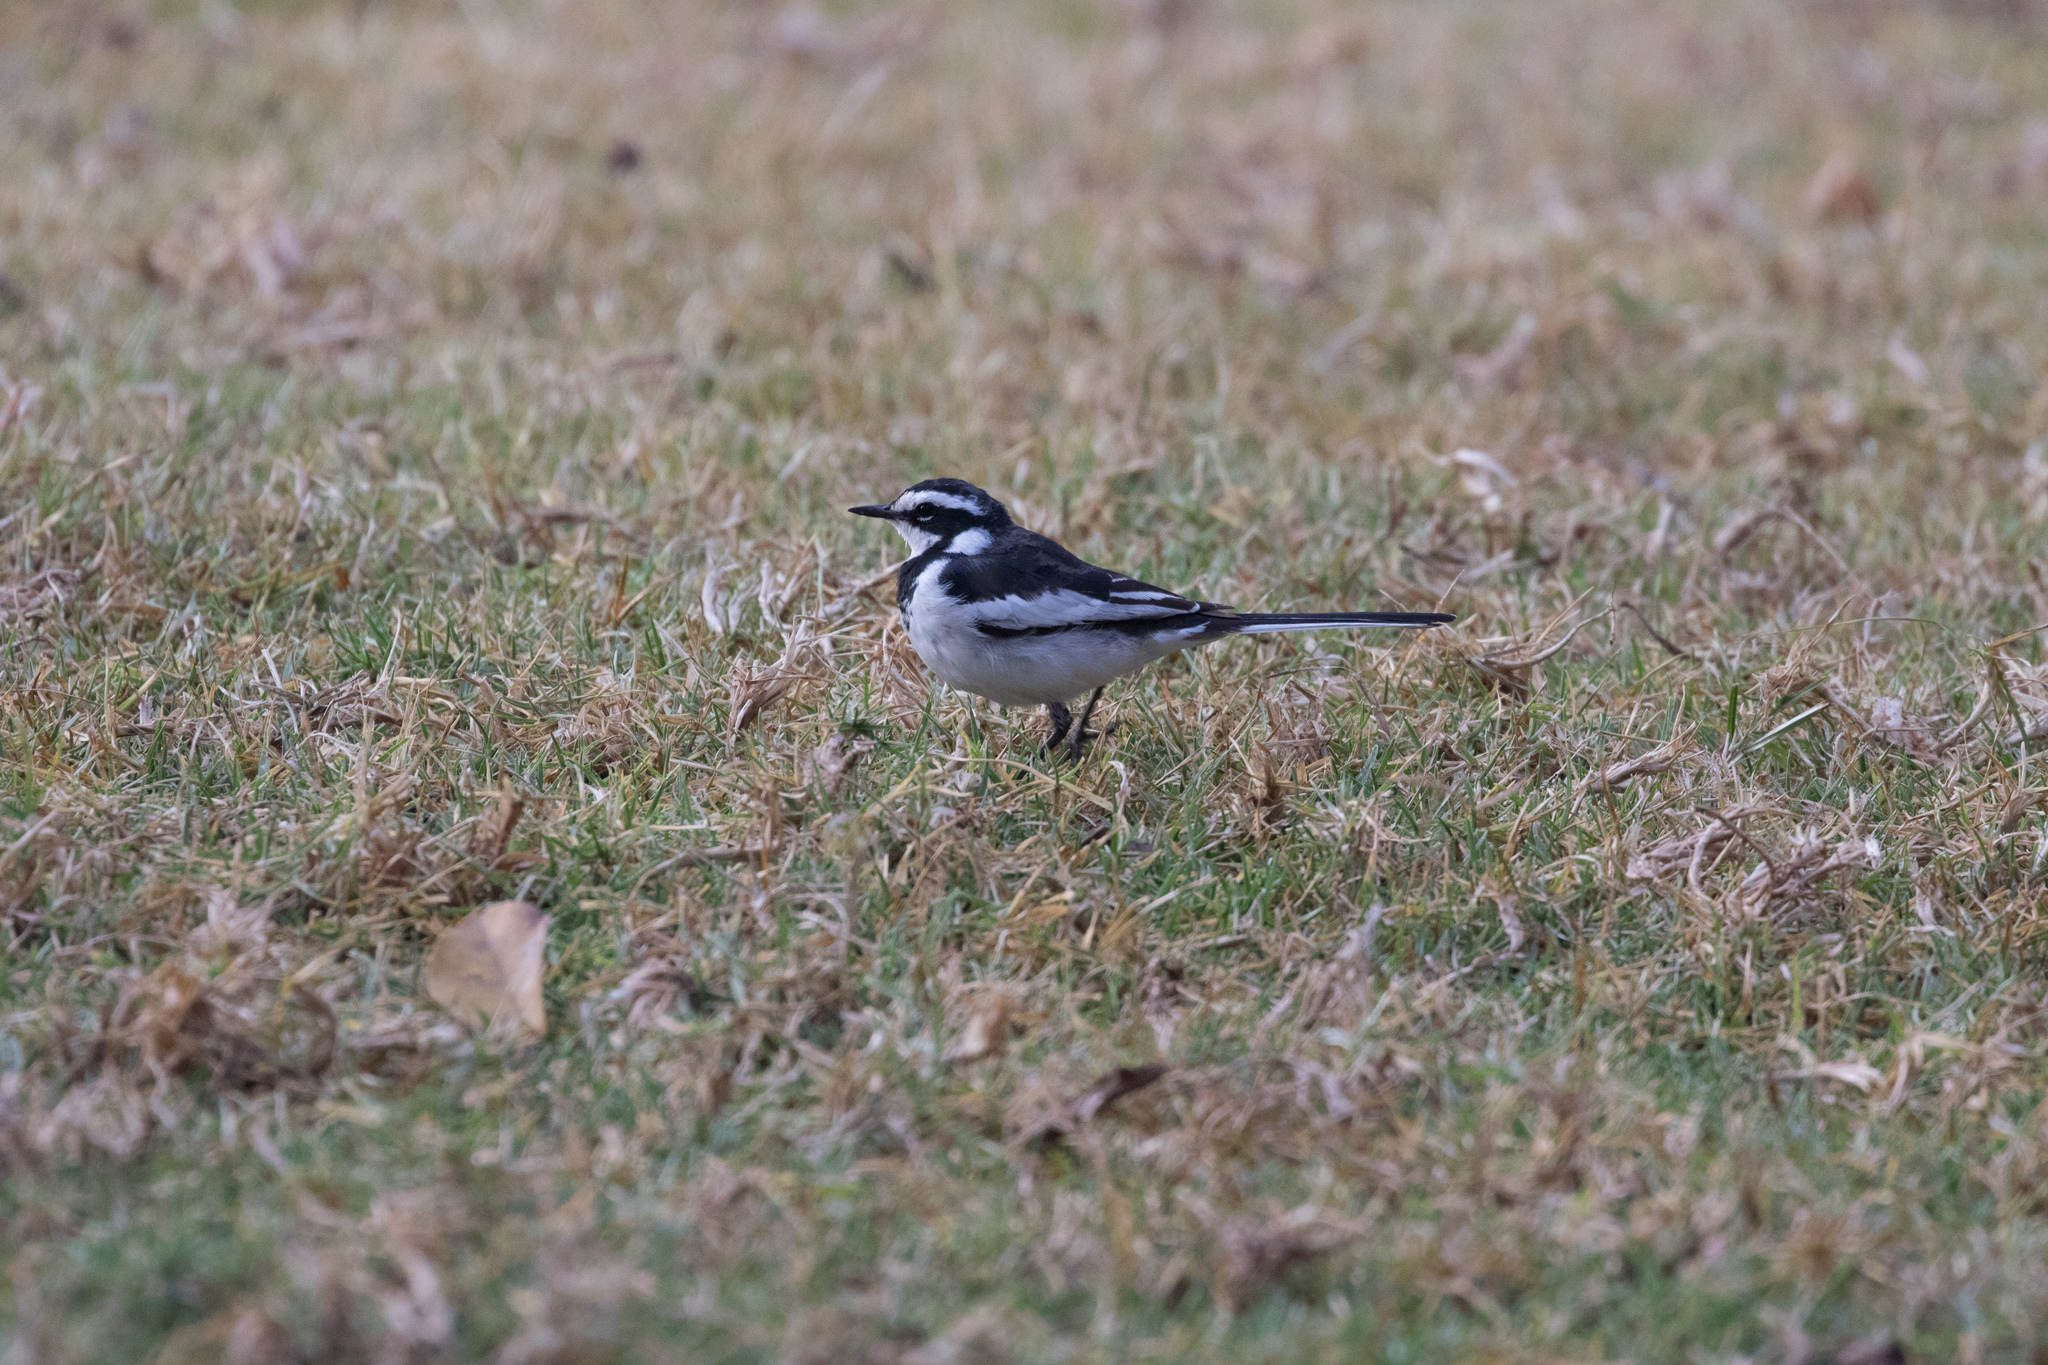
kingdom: Animalia
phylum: Chordata
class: Aves
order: Passeriformes
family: Motacillidae
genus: Motacilla
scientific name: Motacilla aguimp
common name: African pied wagtail
